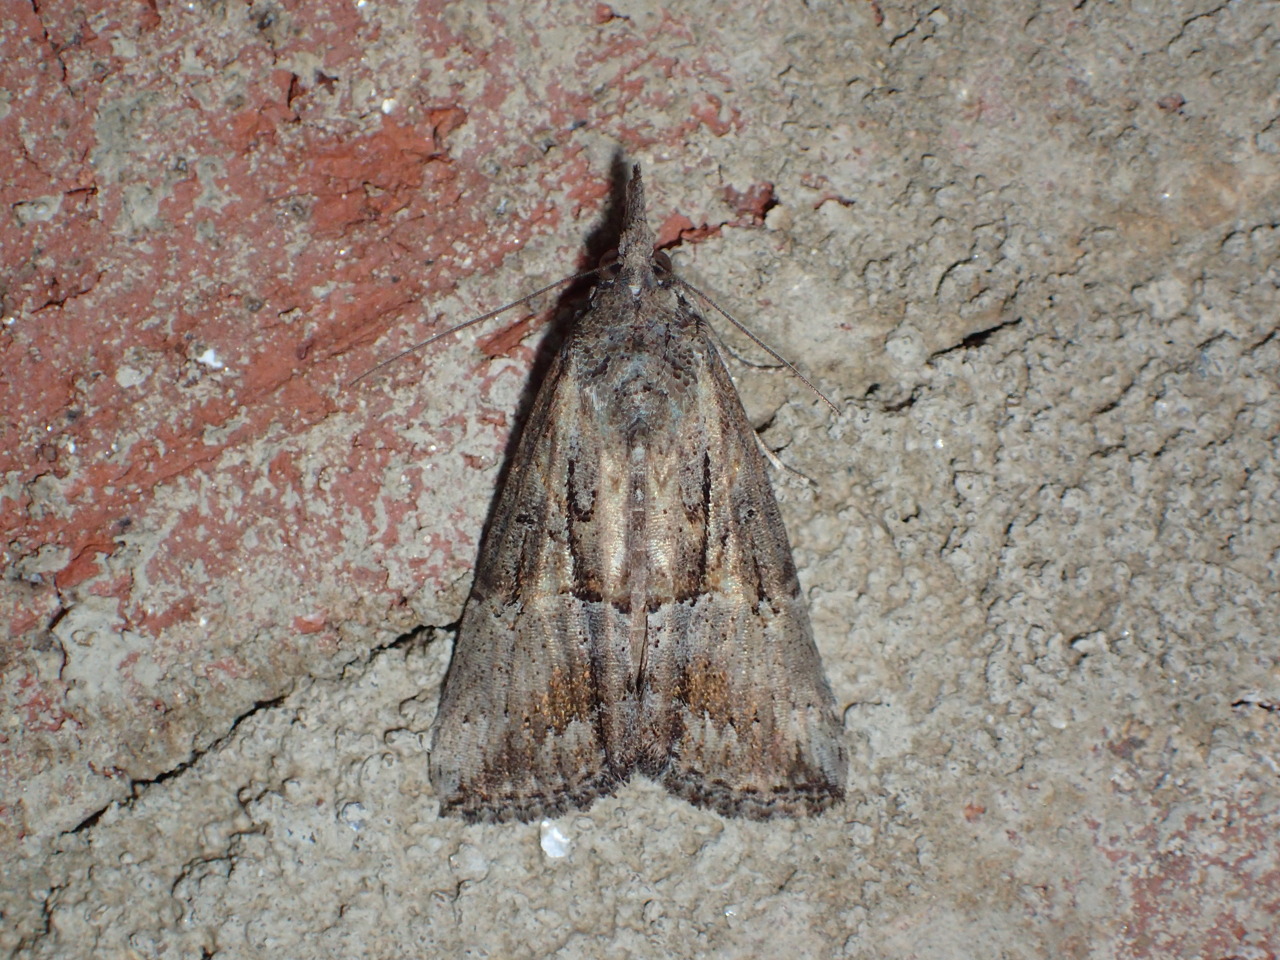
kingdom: Animalia
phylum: Arthropoda
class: Insecta
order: Lepidoptera
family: Erebidae
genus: Hypena
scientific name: Hypena scabra
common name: Green cloverworm
